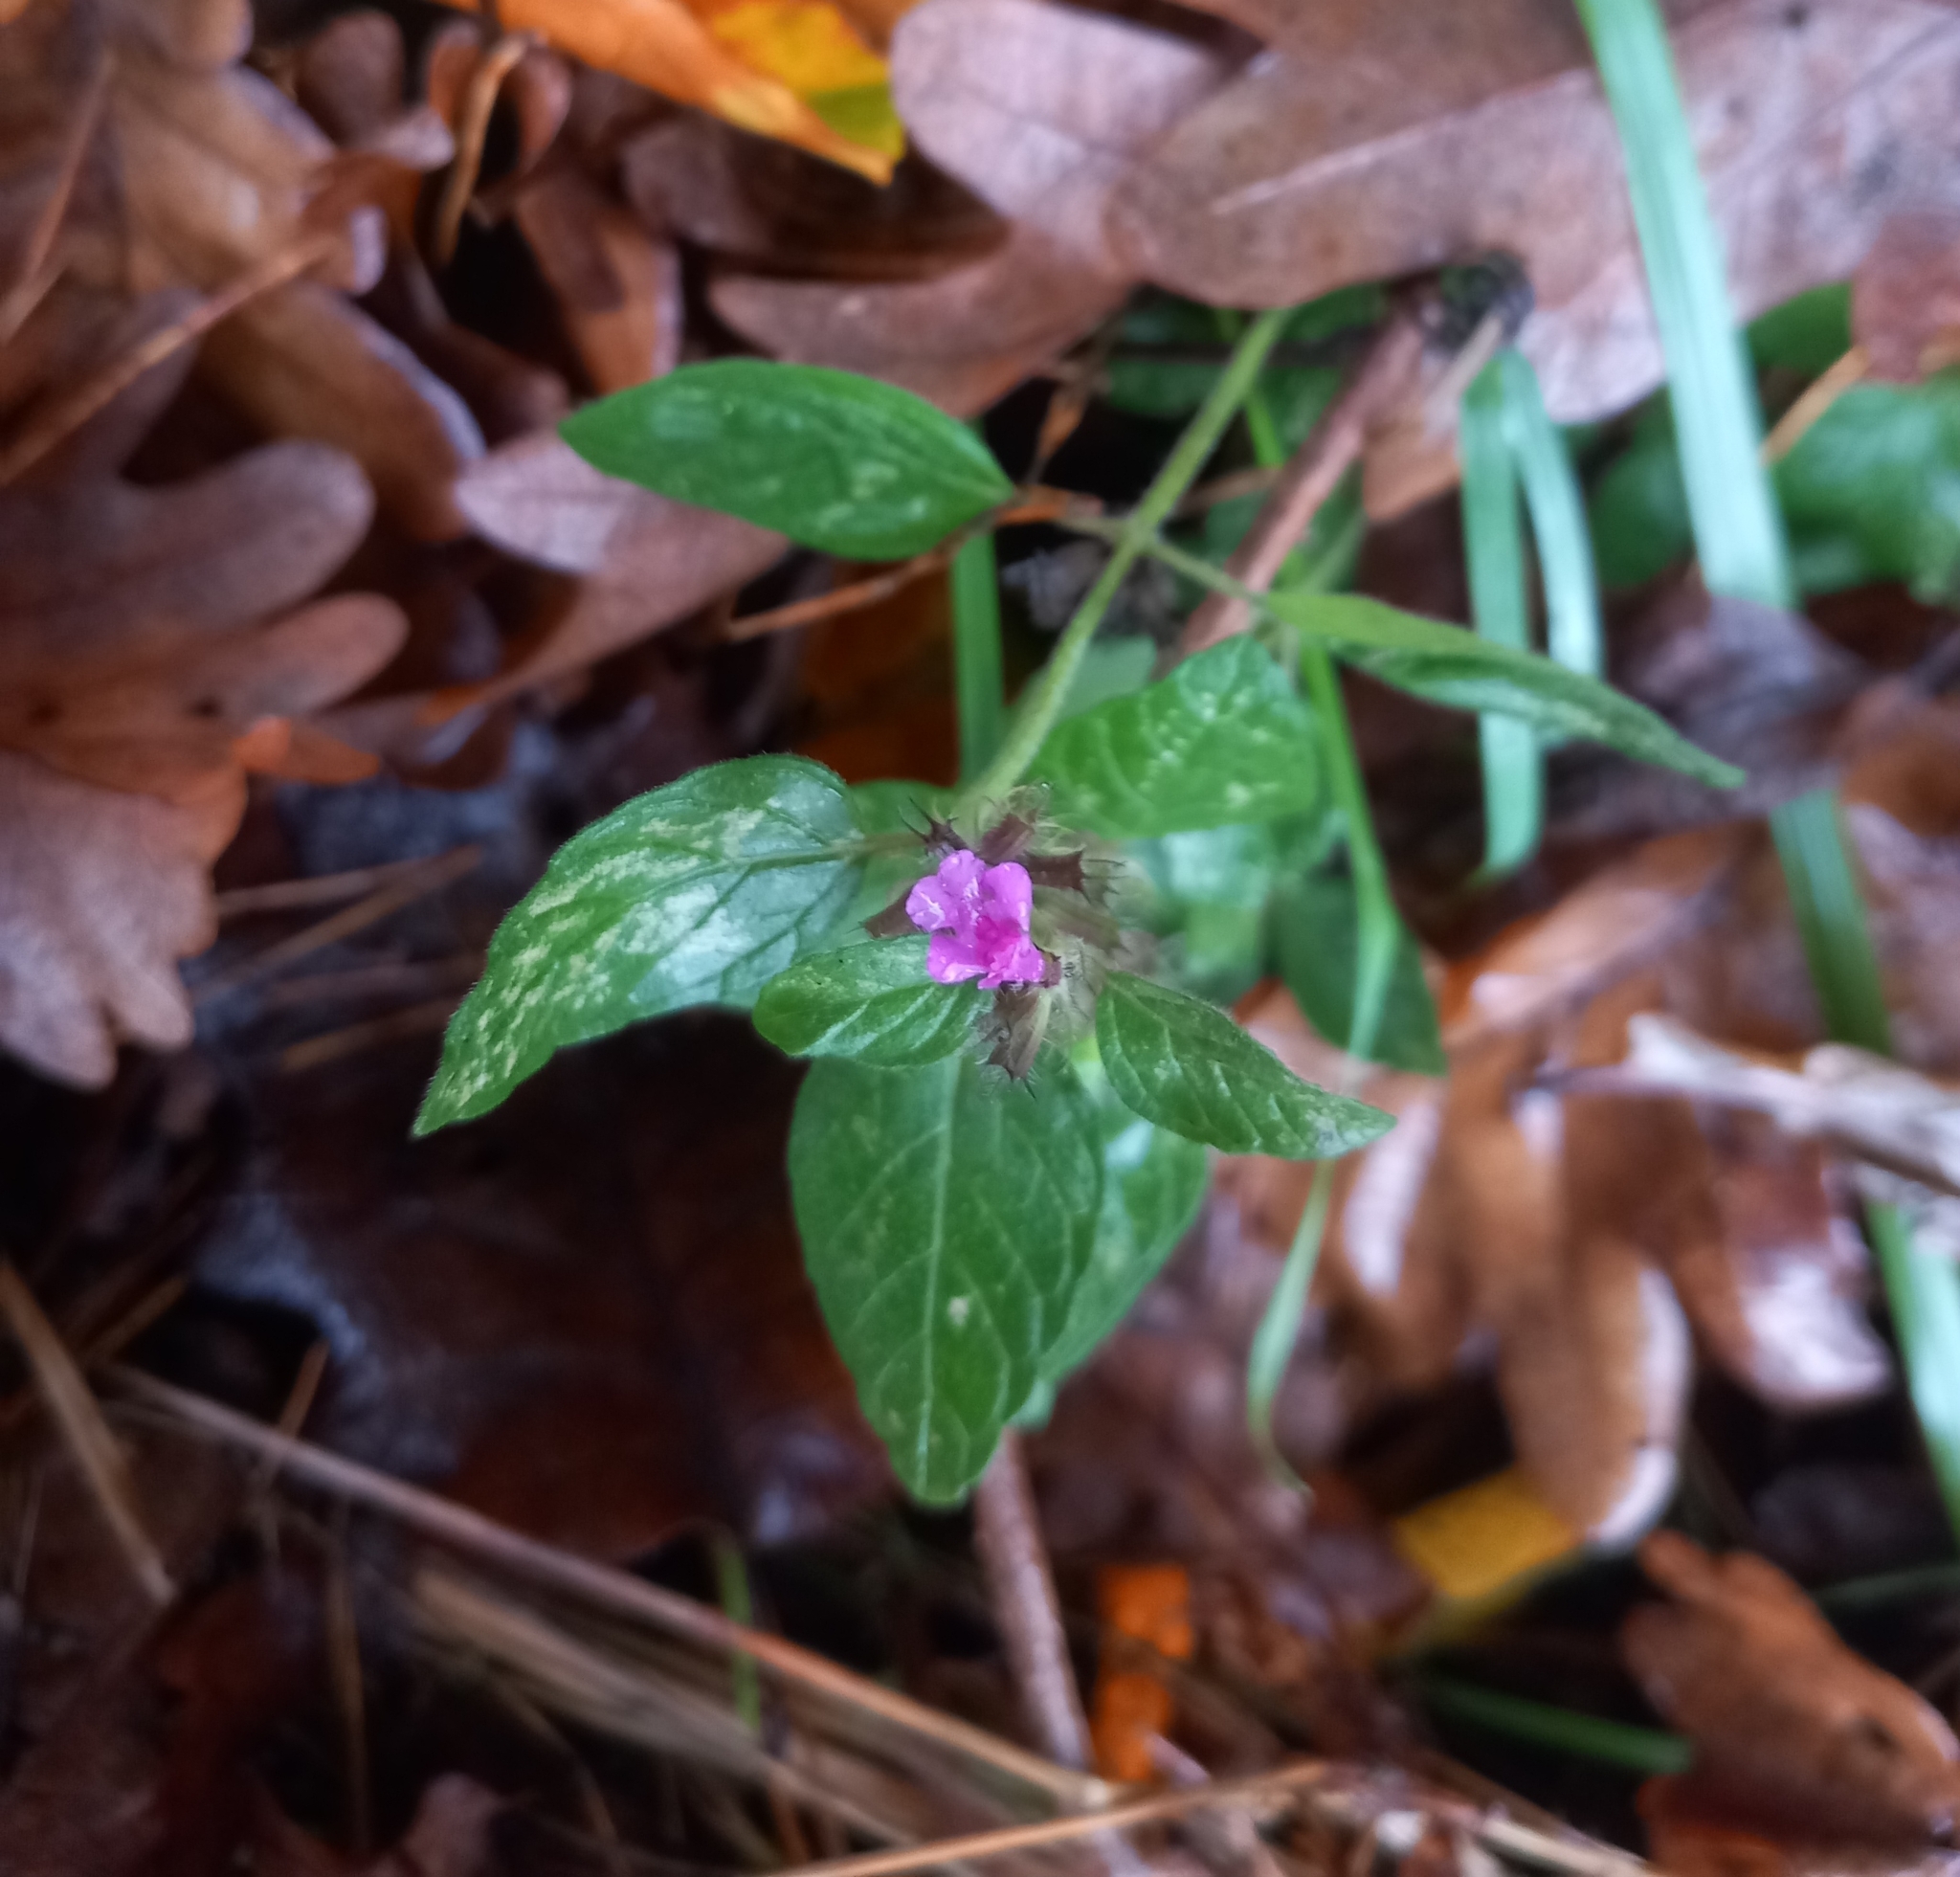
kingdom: Plantae
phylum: Tracheophyta
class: Magnoliopsida
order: Lamiales
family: Lamiaceae
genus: Clinopodium
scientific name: Clinopodium vulgare
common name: Wild basil
